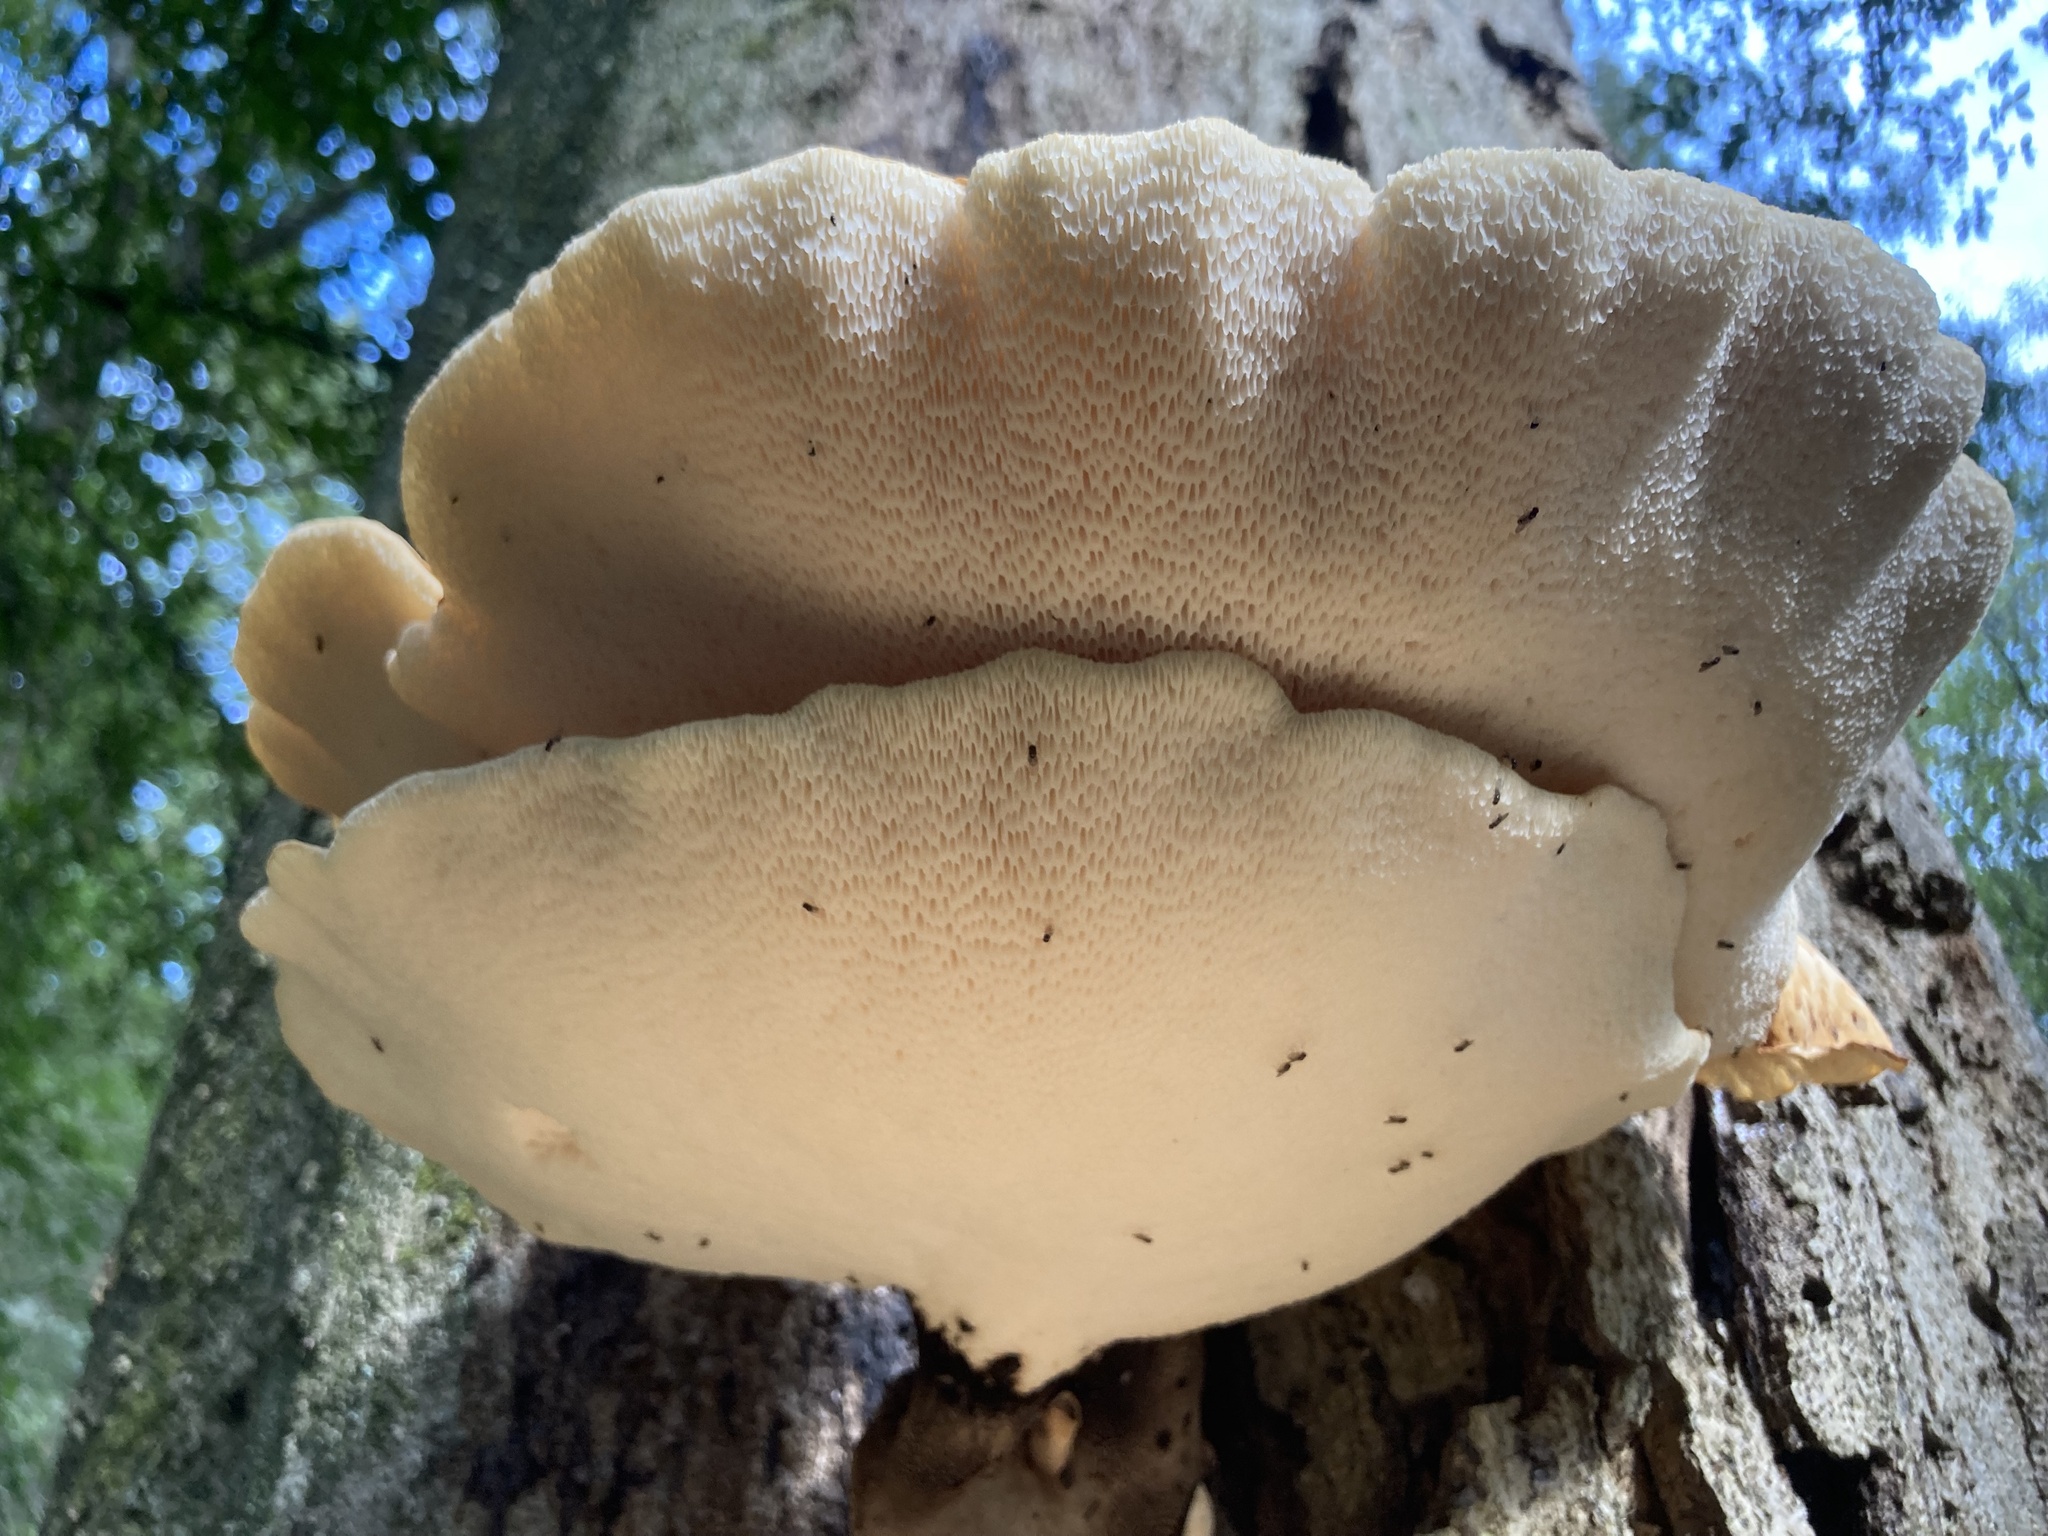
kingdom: Fungi
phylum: Basidiomycota
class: Agaricomycetes
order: Polyporales
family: Polyporaceae
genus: Cerioporus
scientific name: Cerioporus squamosus
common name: Dryad's saddle
